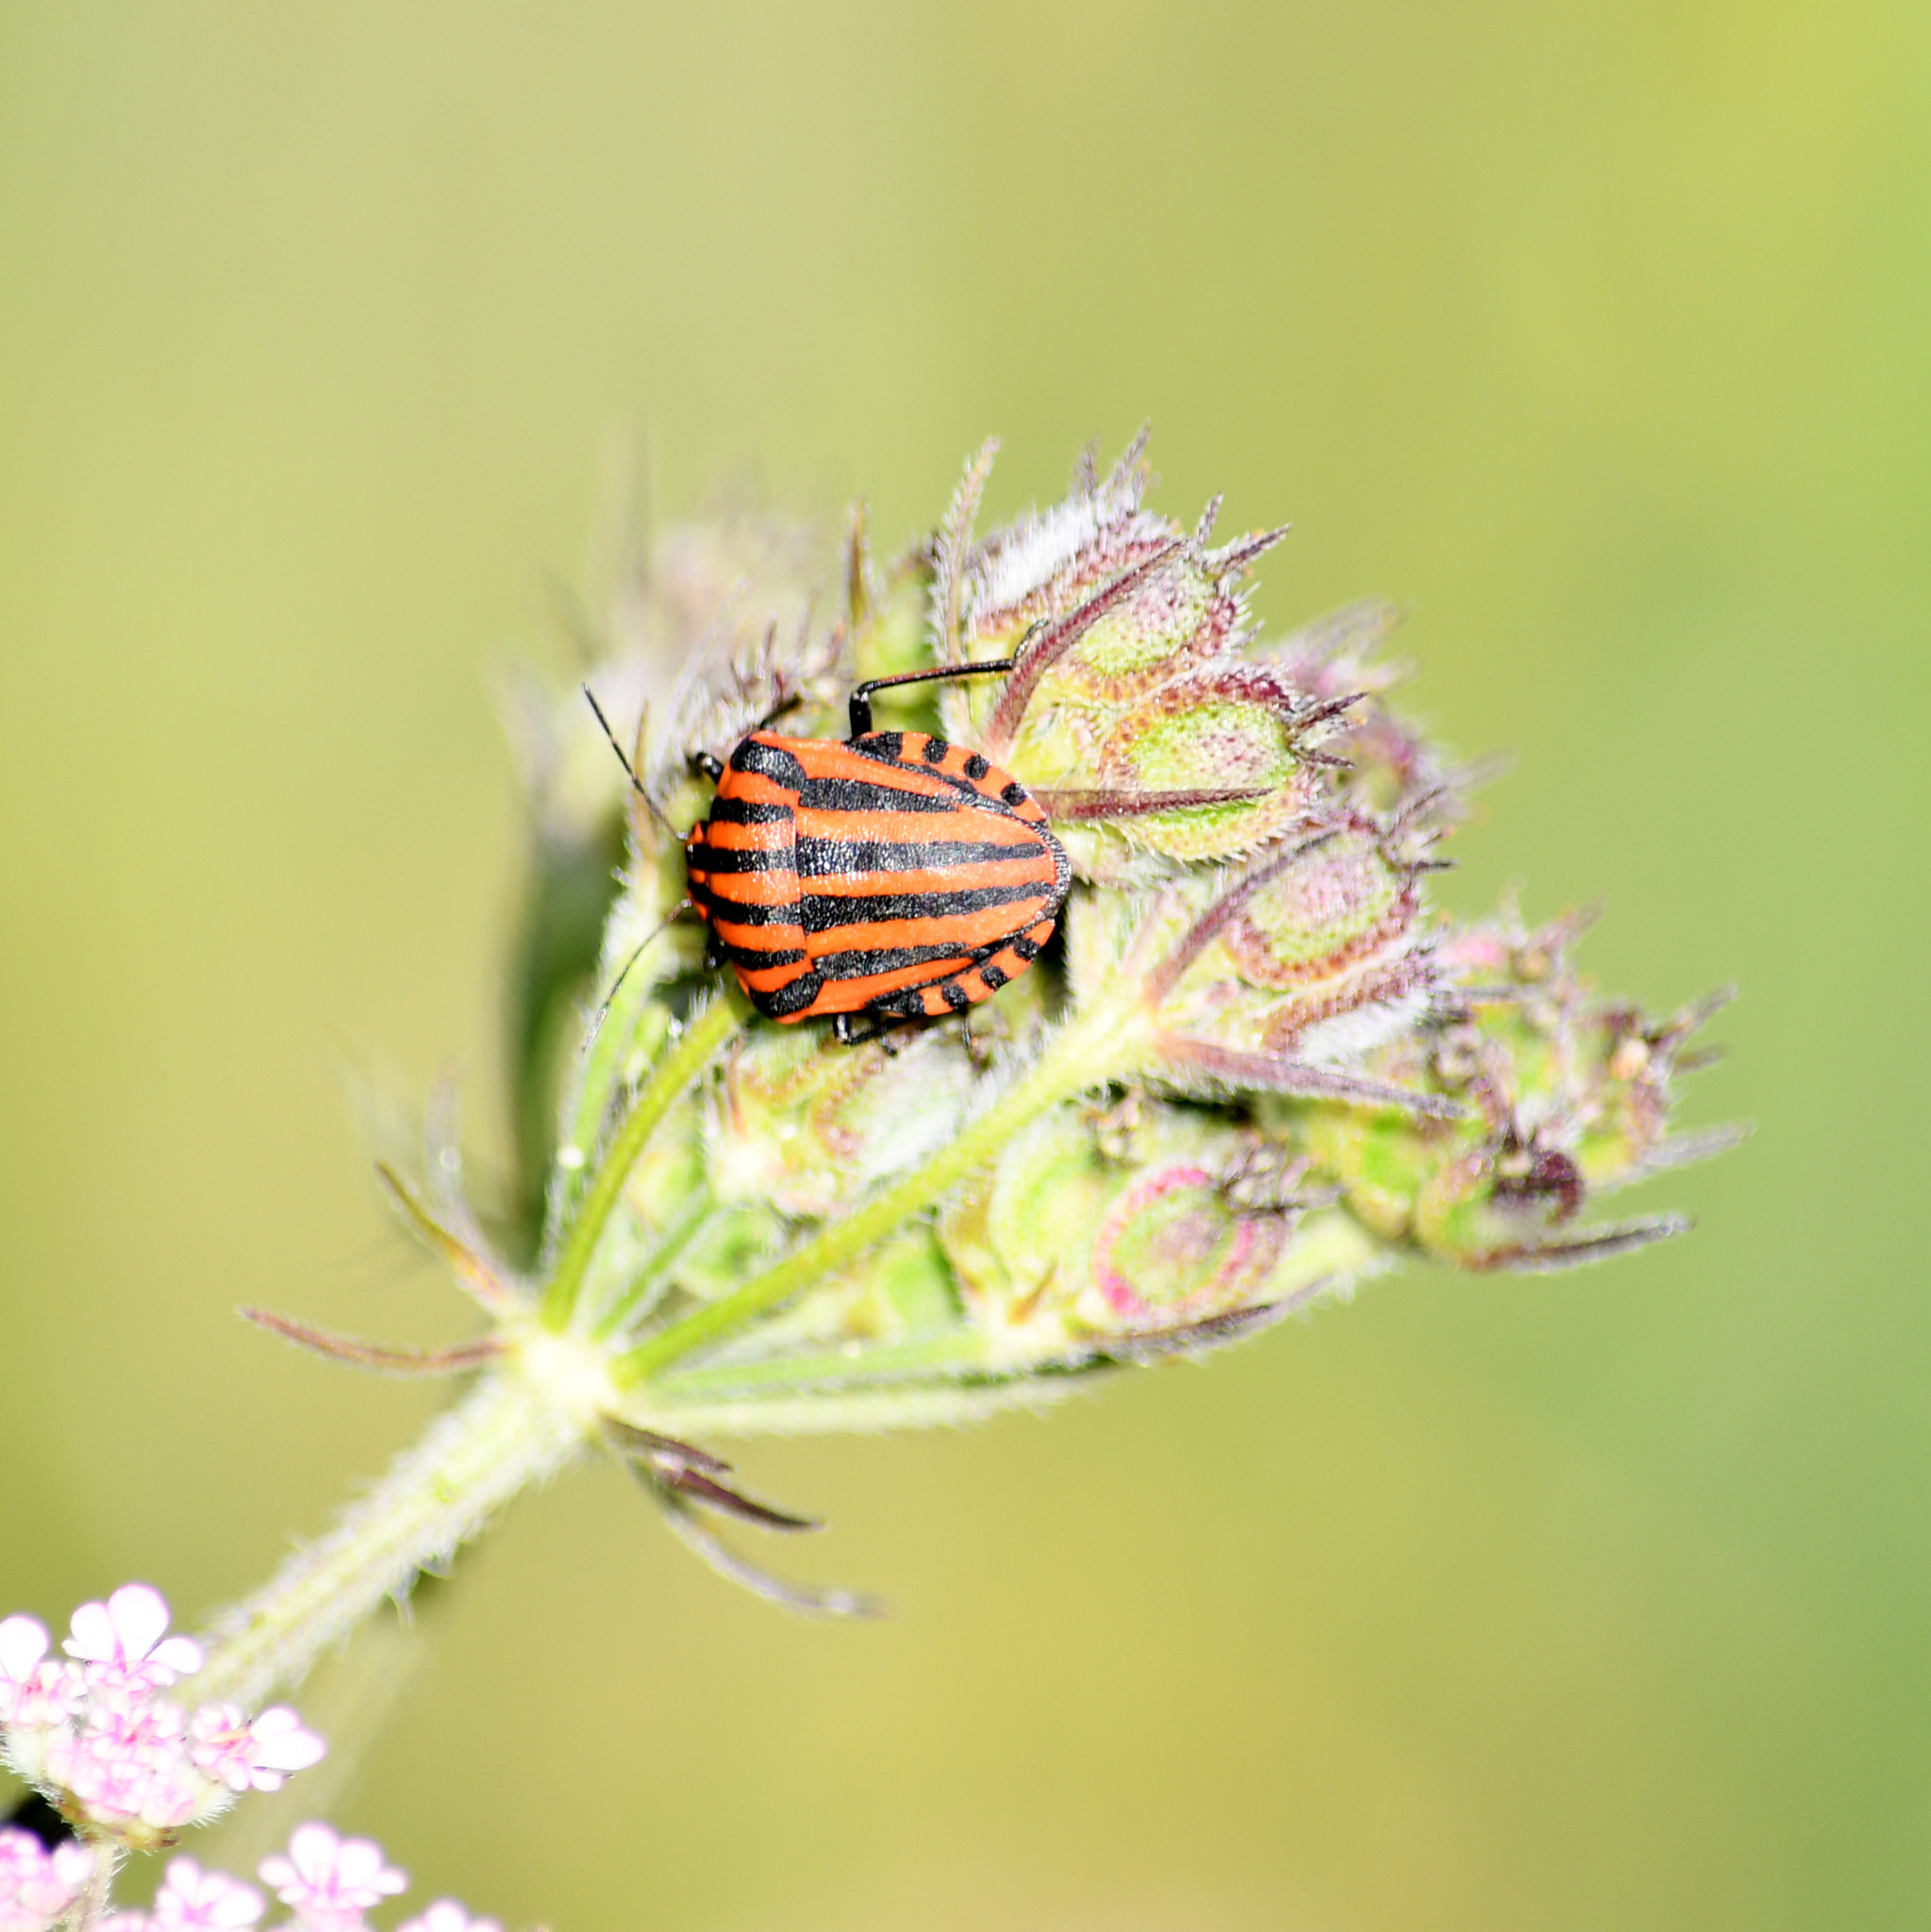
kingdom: Animalia
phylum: Arthropoda
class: Insecta
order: Hemiptera
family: Pentatomidae
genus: Graphosoma
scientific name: Graphosoma italicum
